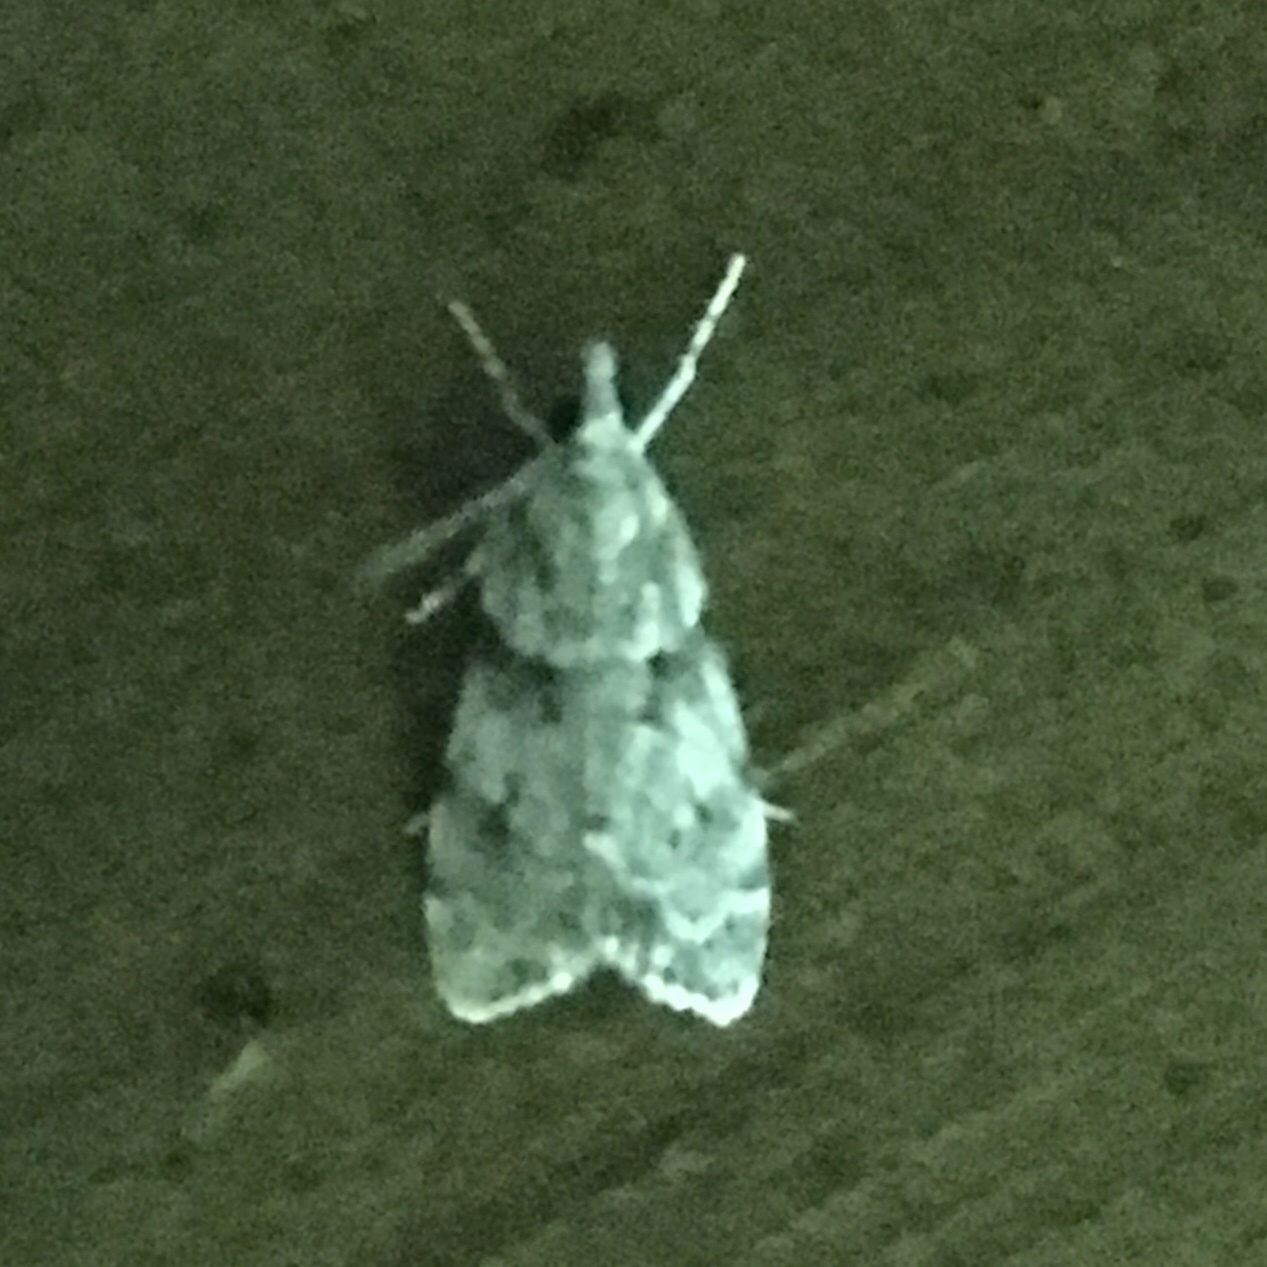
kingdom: Animalia
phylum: Arthropoda
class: Insecta
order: Lepidoptera
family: Crambidae
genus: Scoparia
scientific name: Scoparia biplagialis
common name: Double-striped scoparia moth
